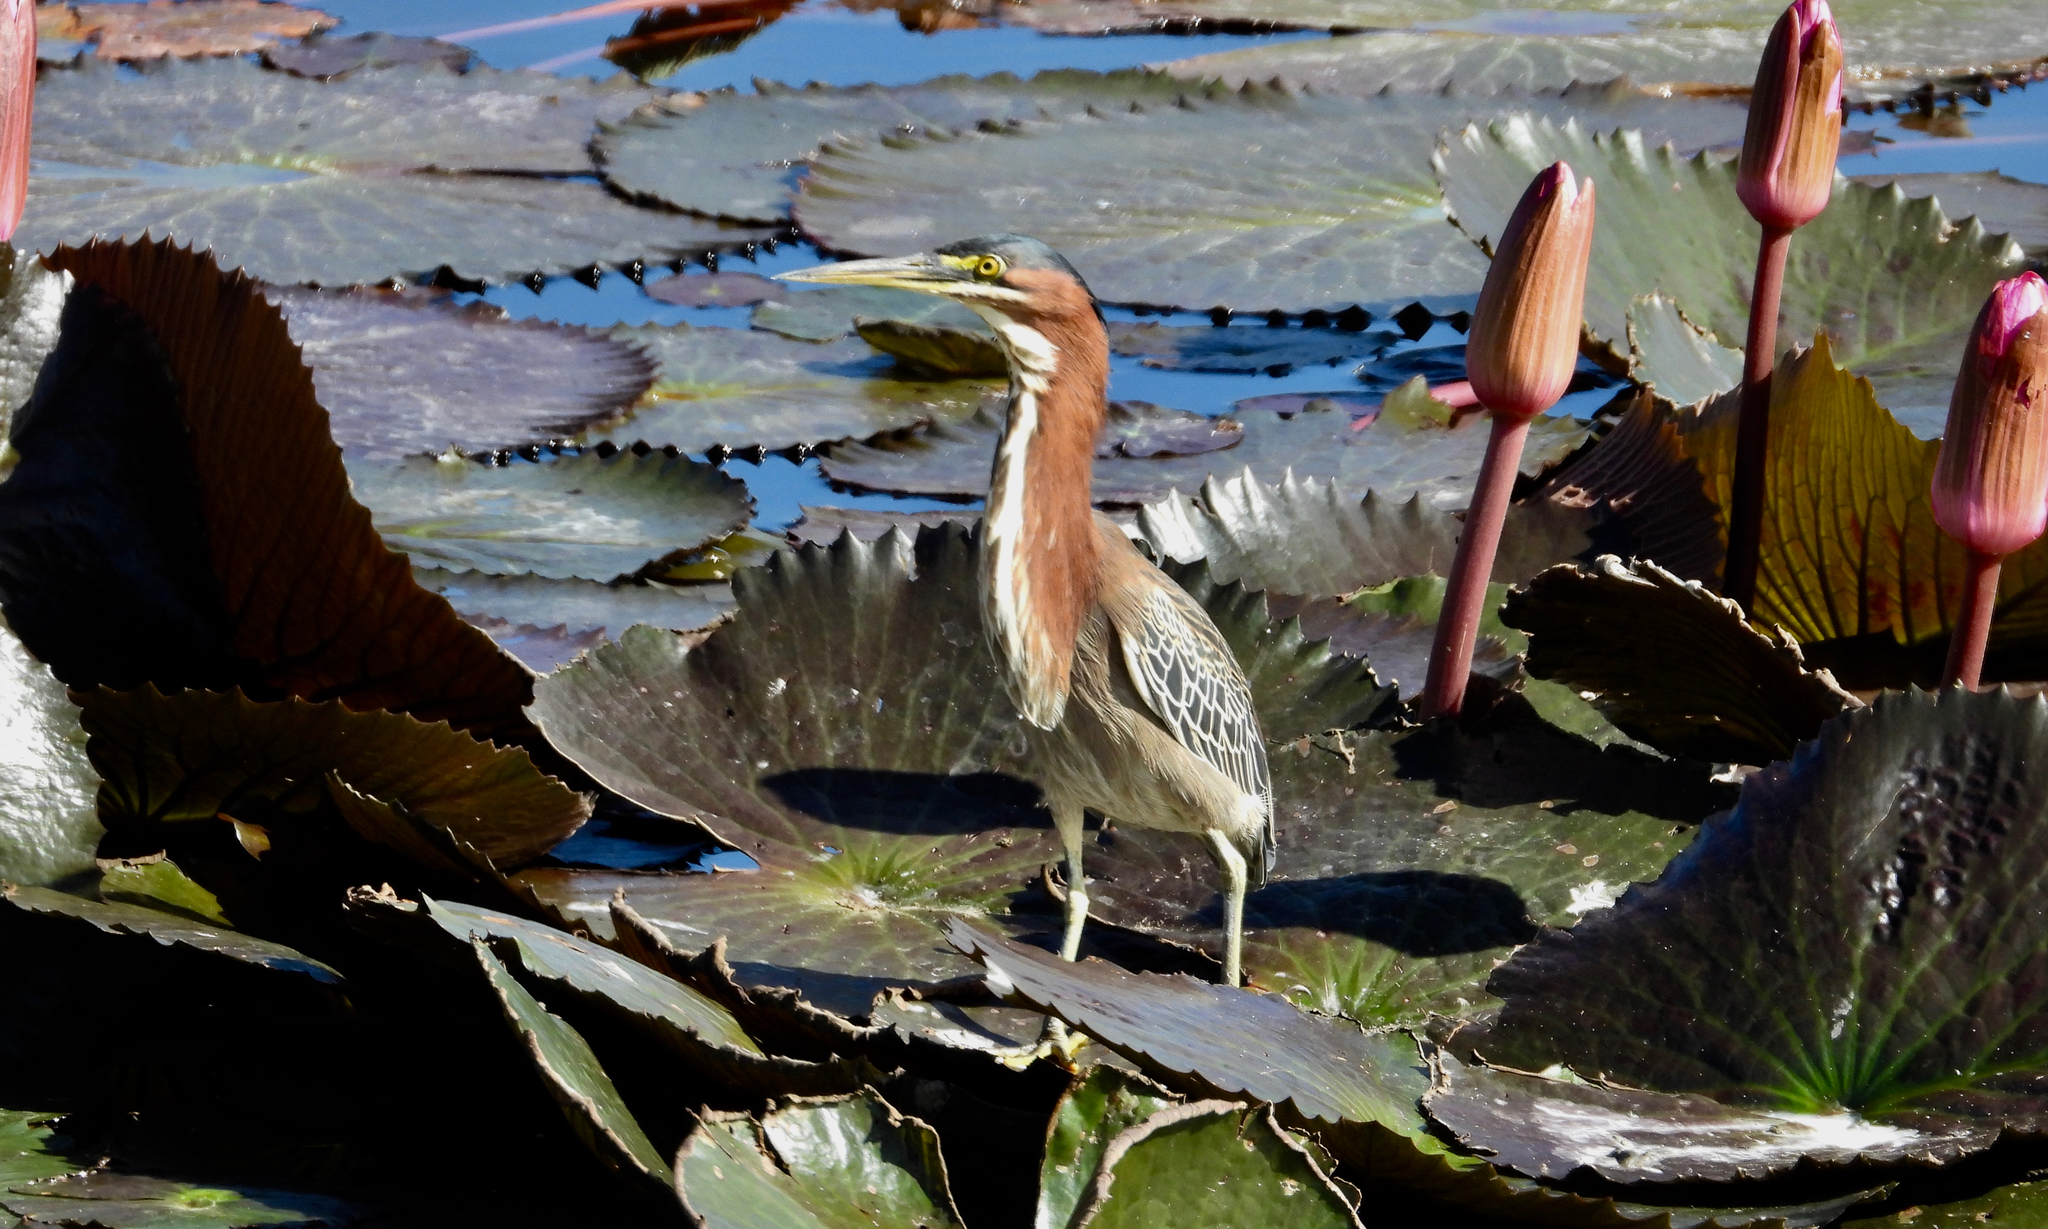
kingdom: Animalia
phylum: Chordata
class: Aves
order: Pelecaniformes
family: Ardeidae
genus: Butorides
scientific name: Butorides virescens
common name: Green heron
